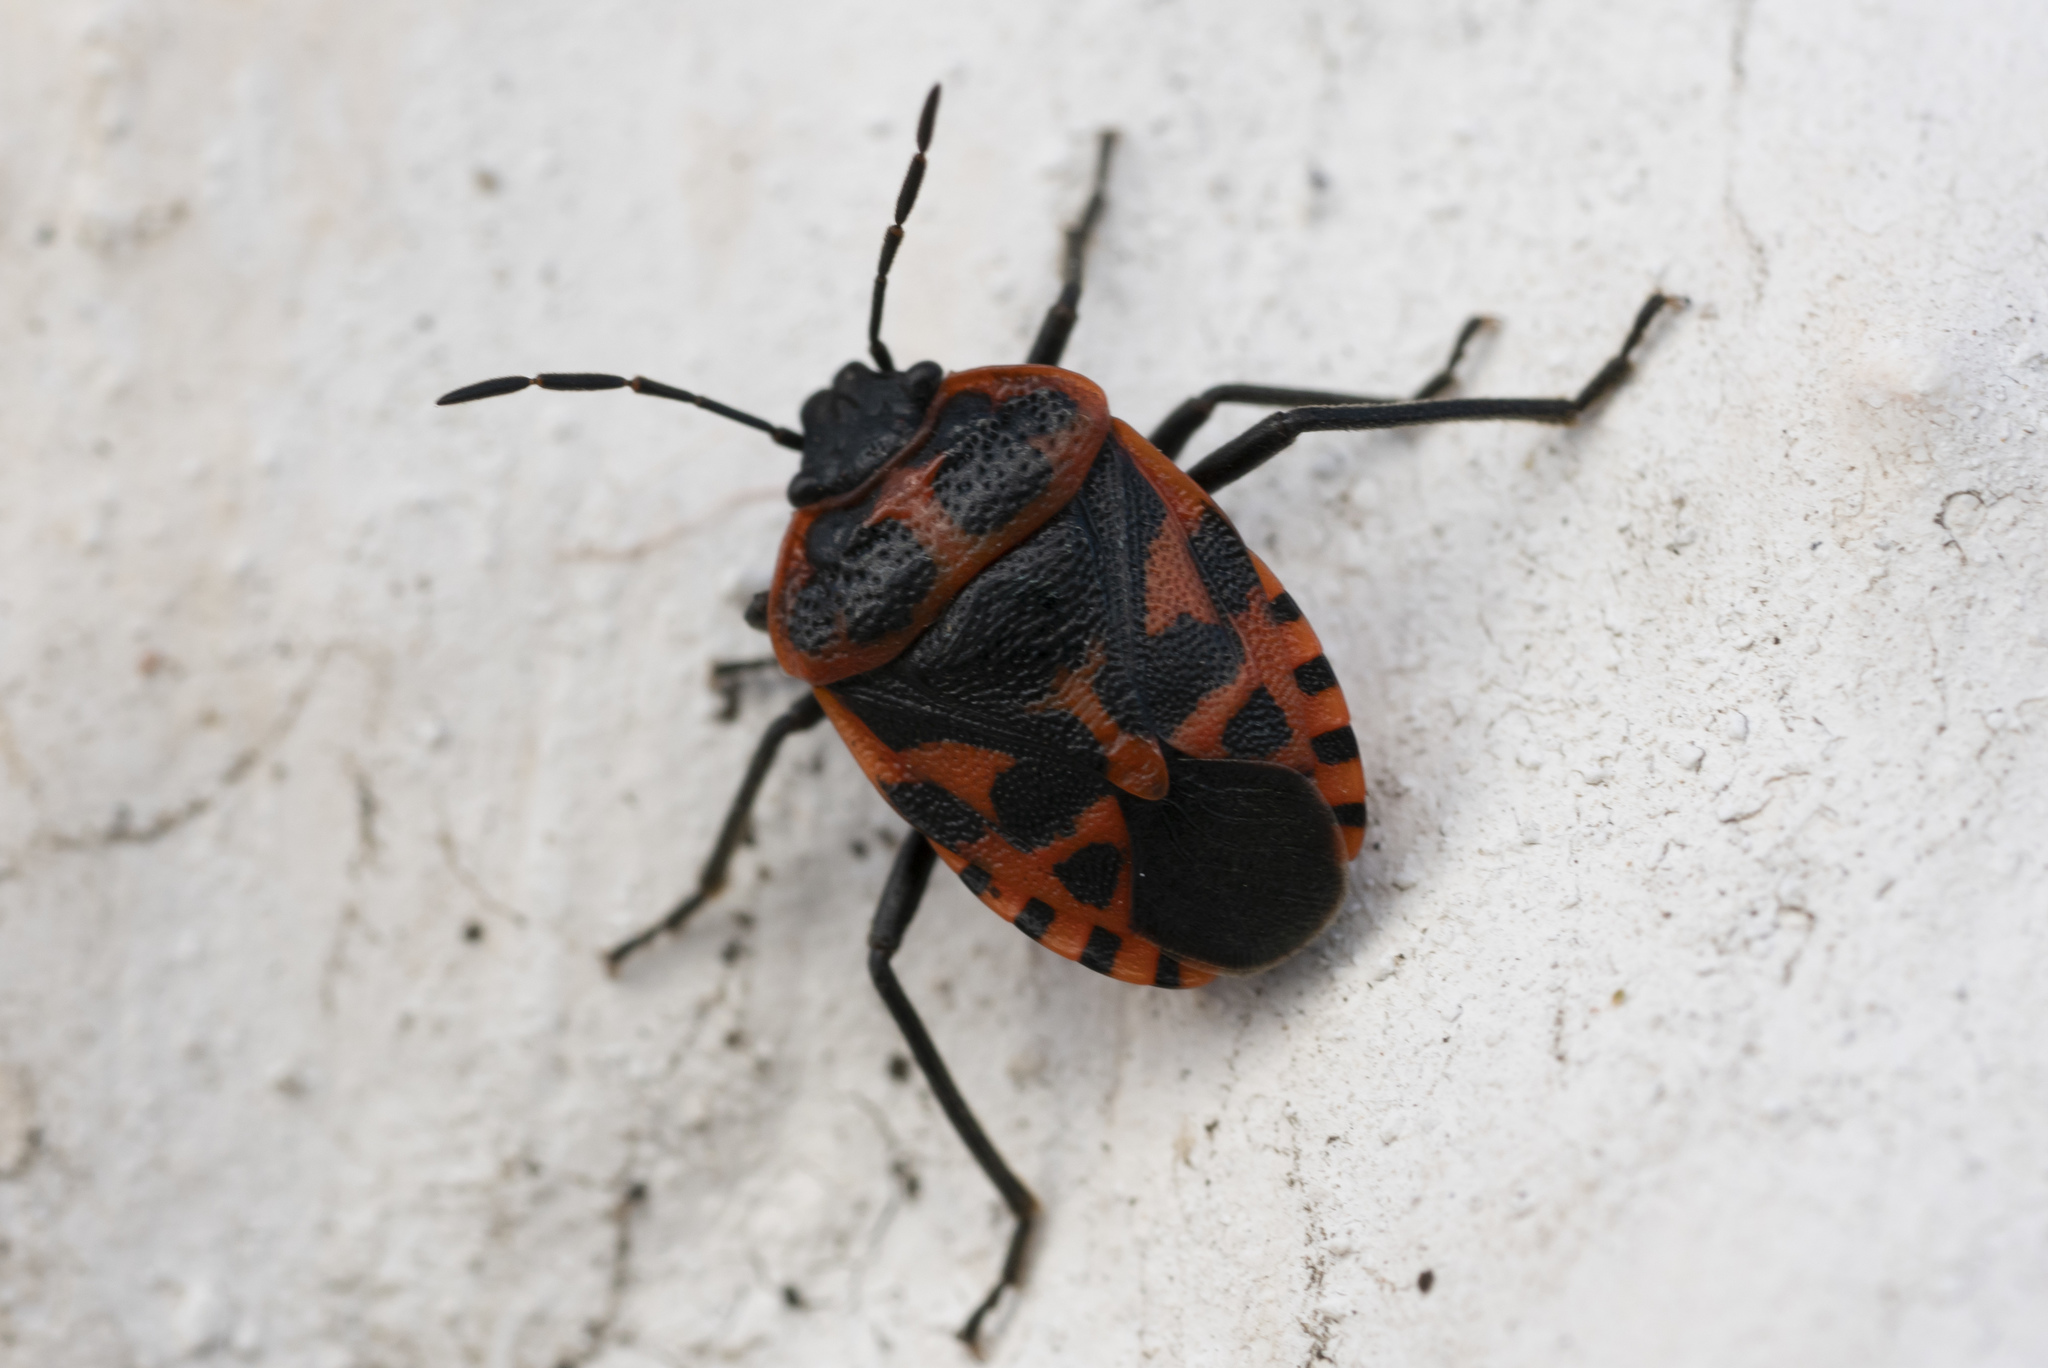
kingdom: Animalia
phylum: Arthropoda
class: Insecta
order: Hemiptera
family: Pentatomidae
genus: Eurydema
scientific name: Eurydema eckerleini
